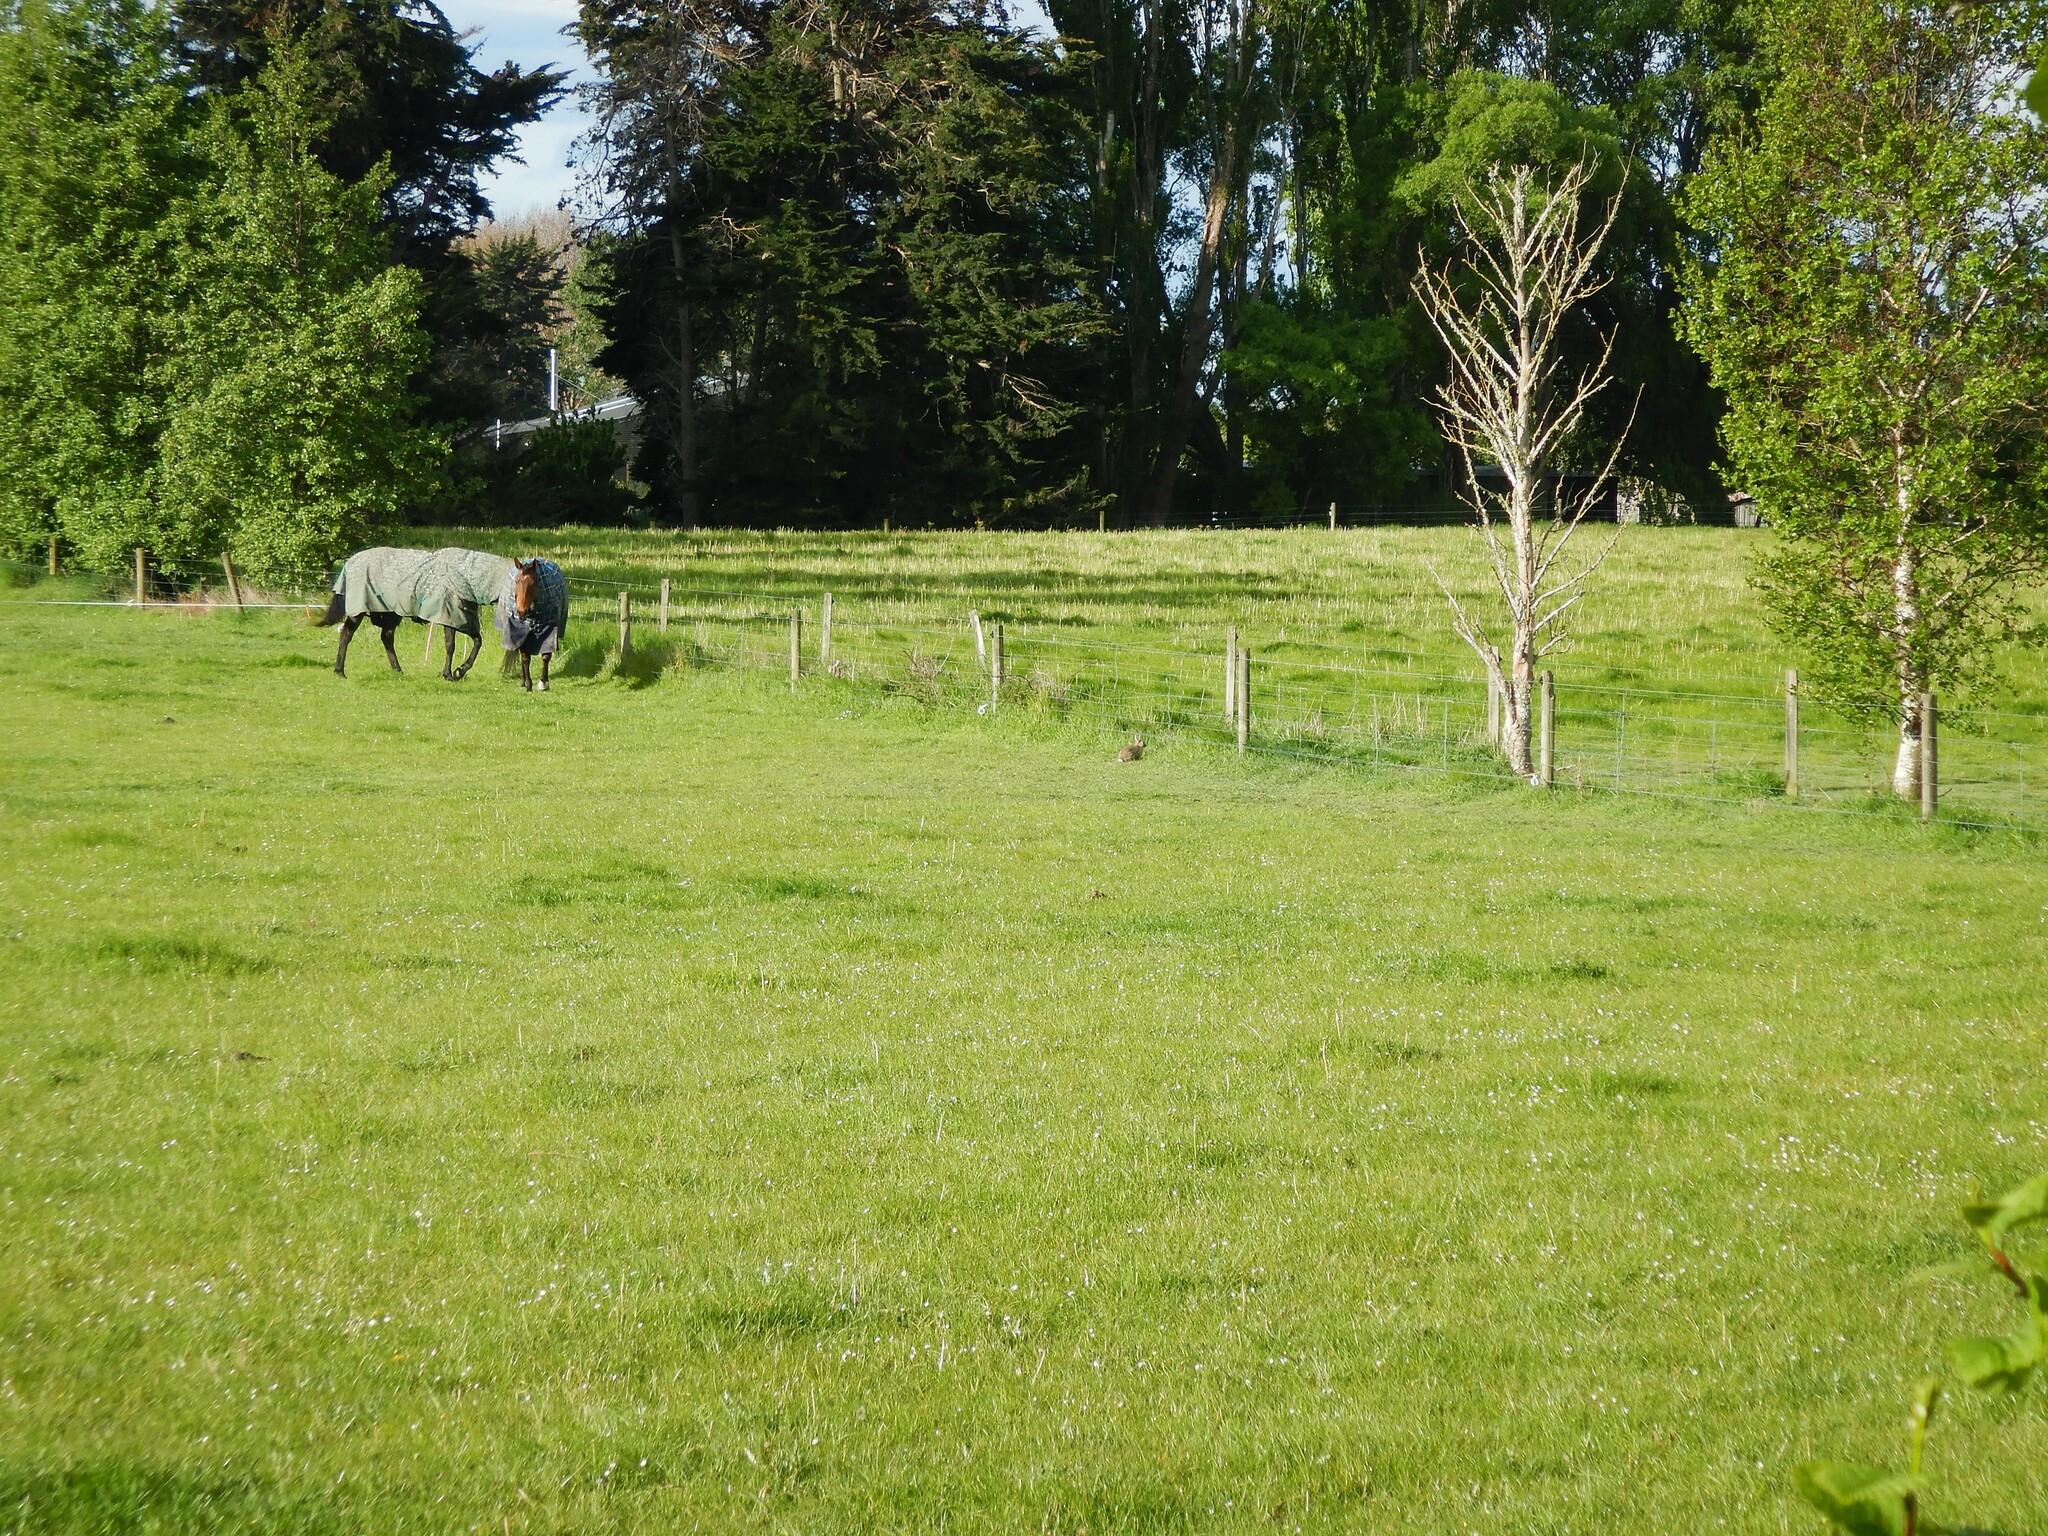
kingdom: Animalia
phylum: Chordata
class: Mammalia
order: Lagomorpha
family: Leporidae
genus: Oryctolagus
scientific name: Oryctolagus cuniculus
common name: European rabbit
